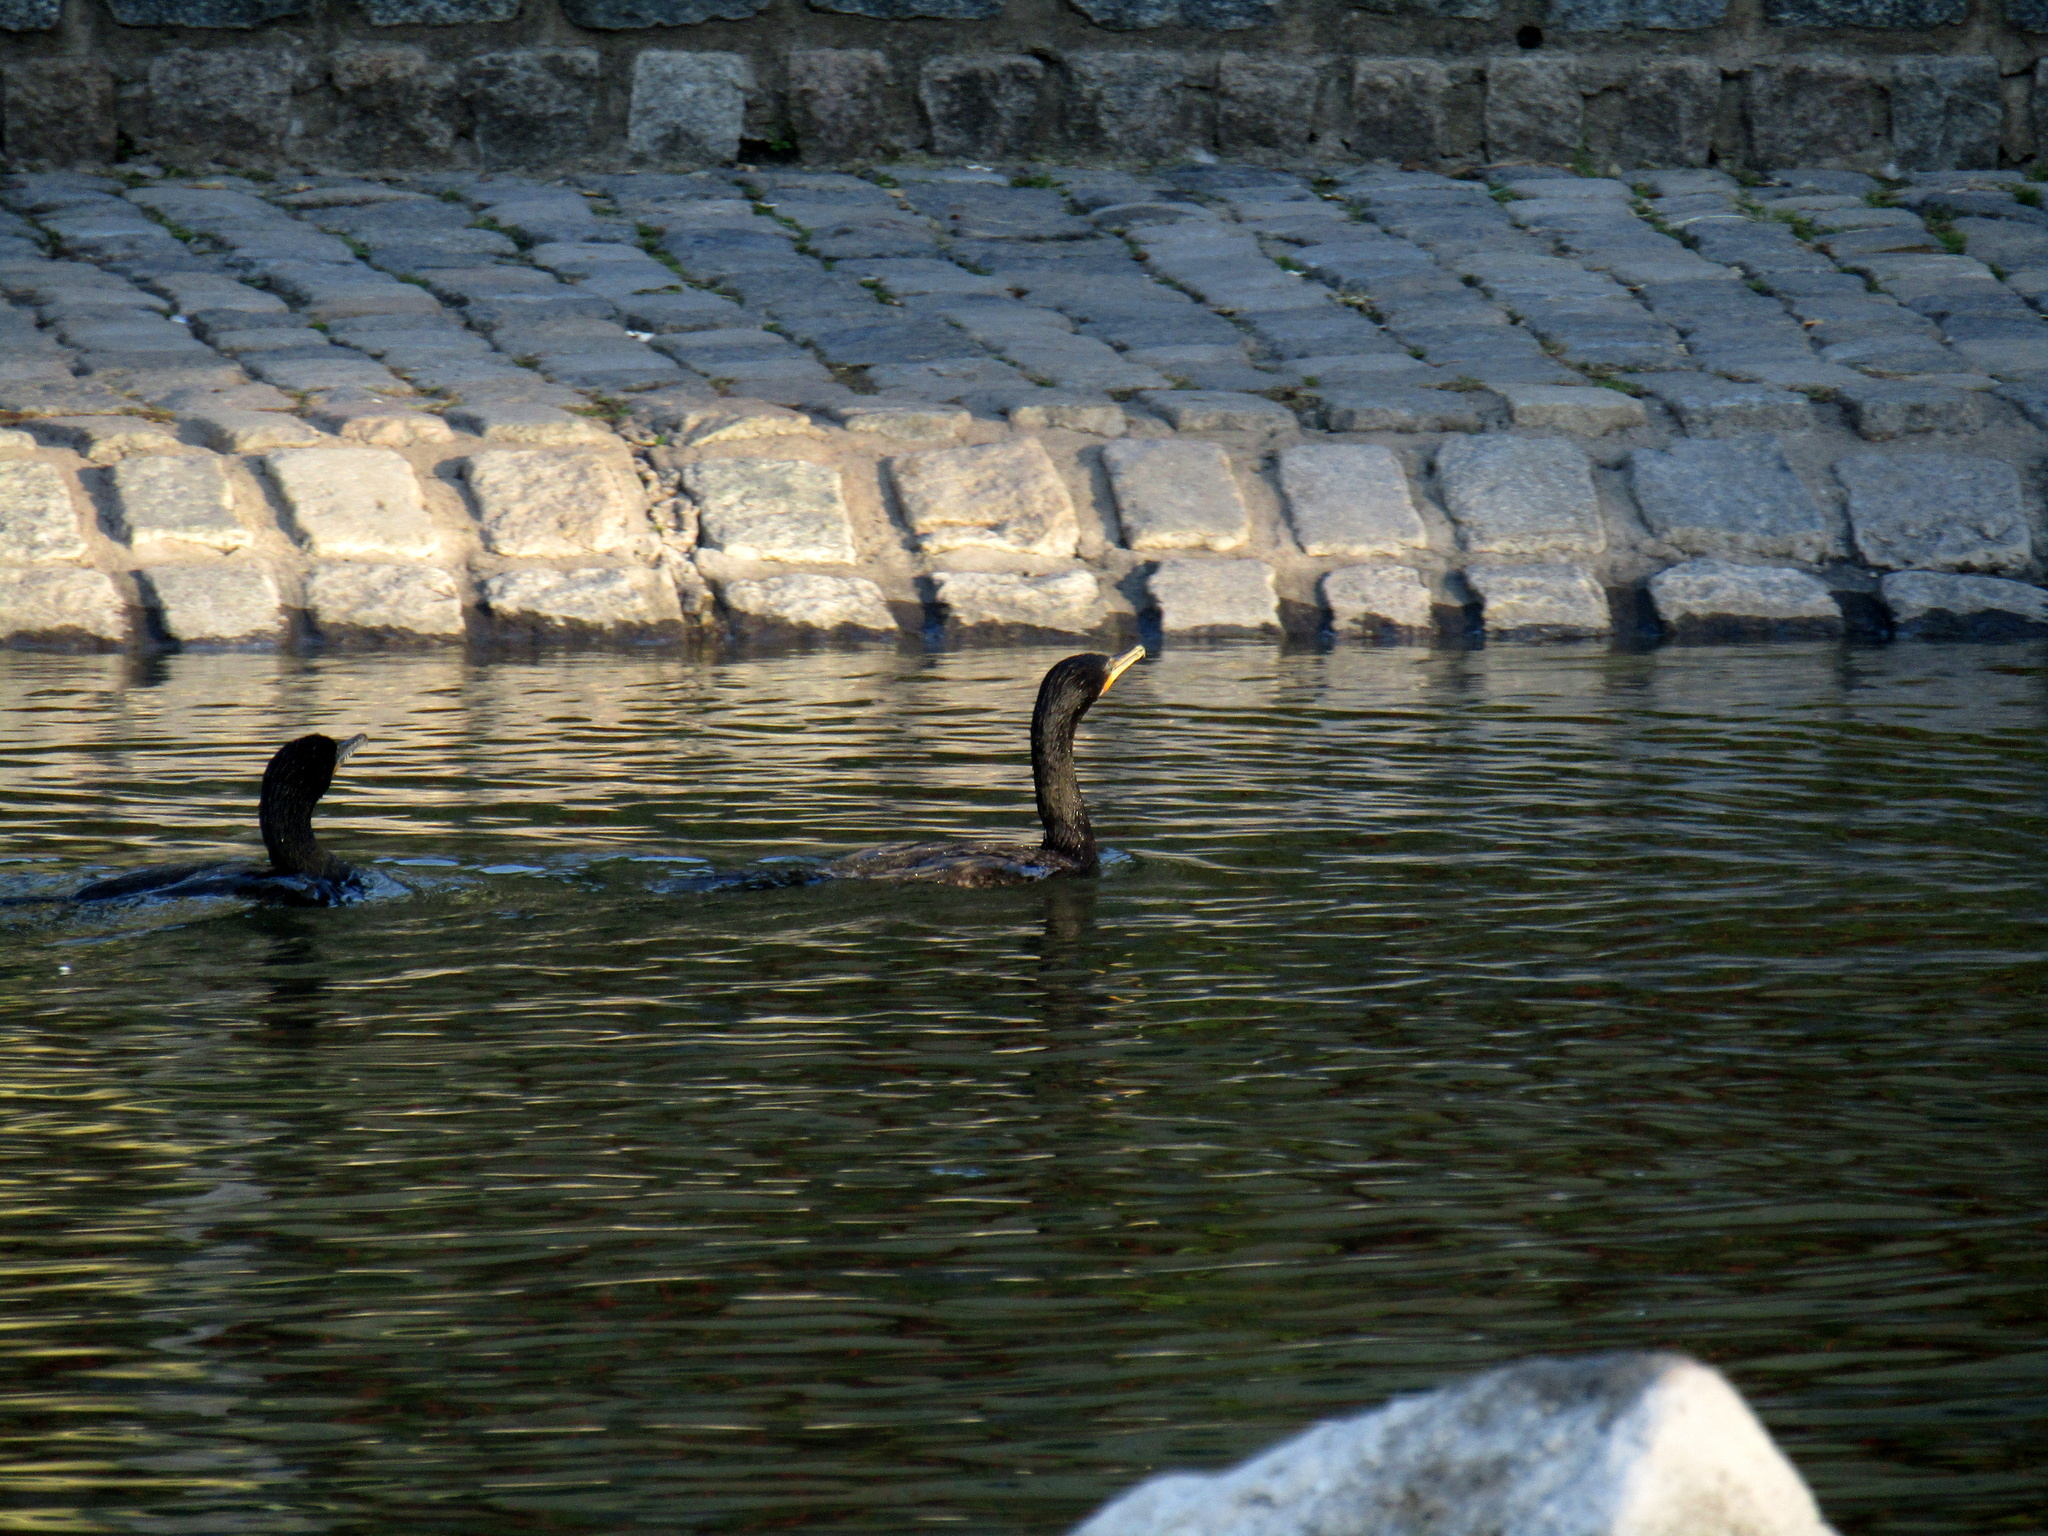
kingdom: Animalia
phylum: Chordata
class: Aves
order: Suliformes
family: Phalacrocoracidae
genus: Phalacrocorax
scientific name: Phalacrocorax brasilianus
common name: Neotropic cormorant
